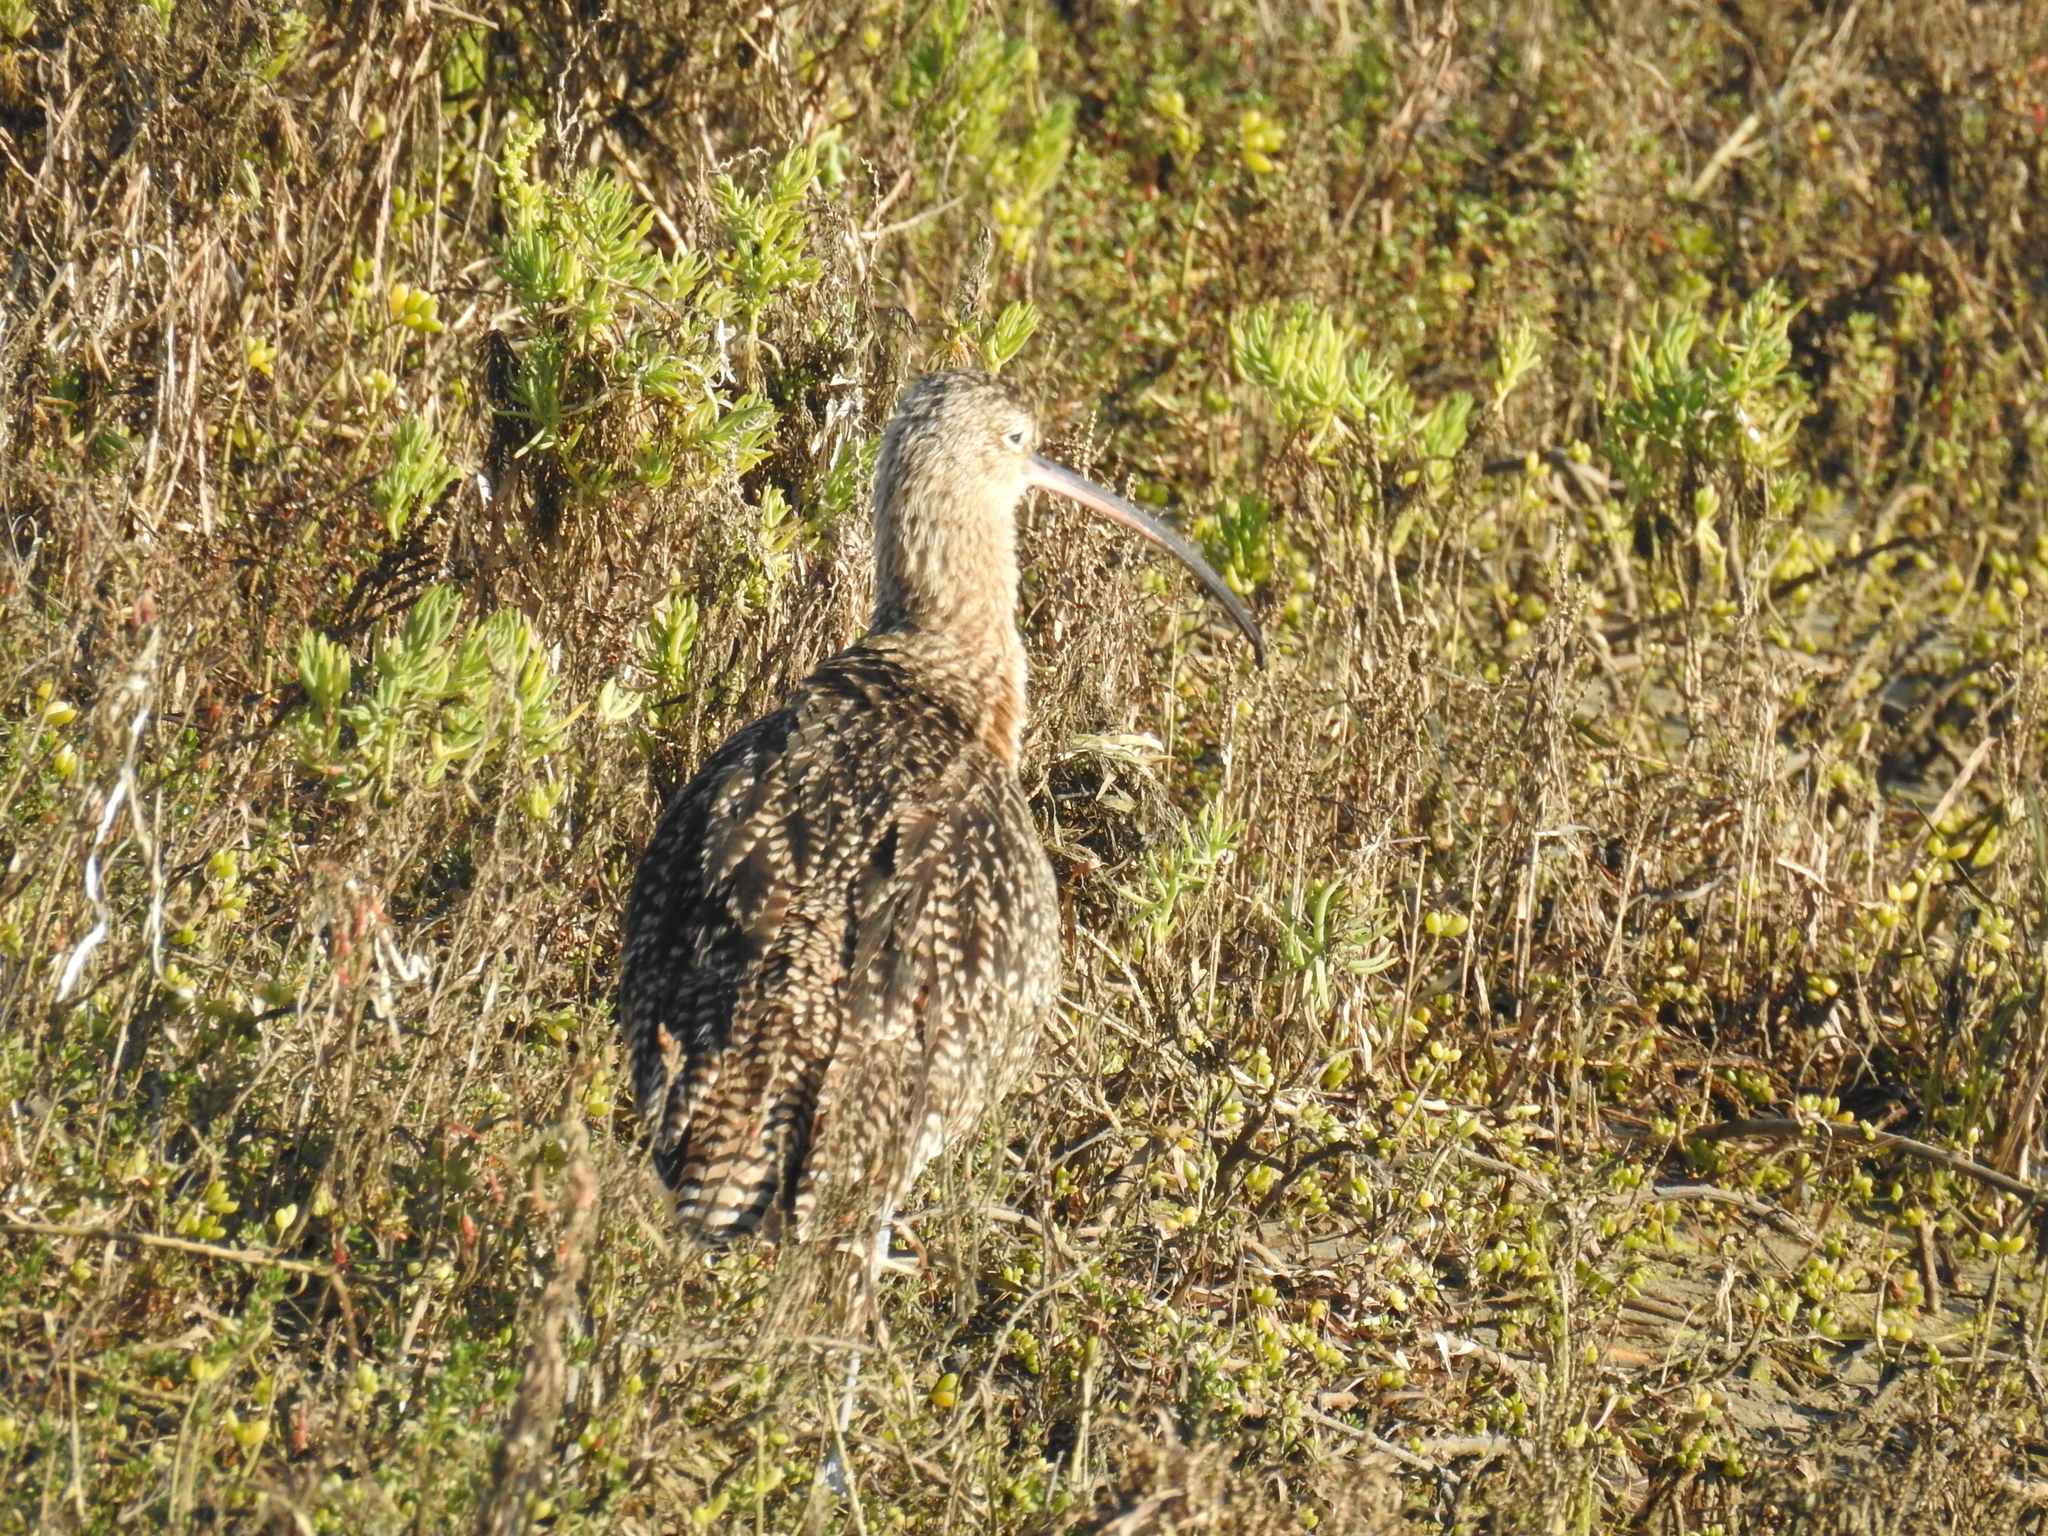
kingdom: Animalia
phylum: Chordata
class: Aves
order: Charadriiformes
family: Scolopacidae
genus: Numenius
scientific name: Numenius americanus
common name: Long-billed curlew
